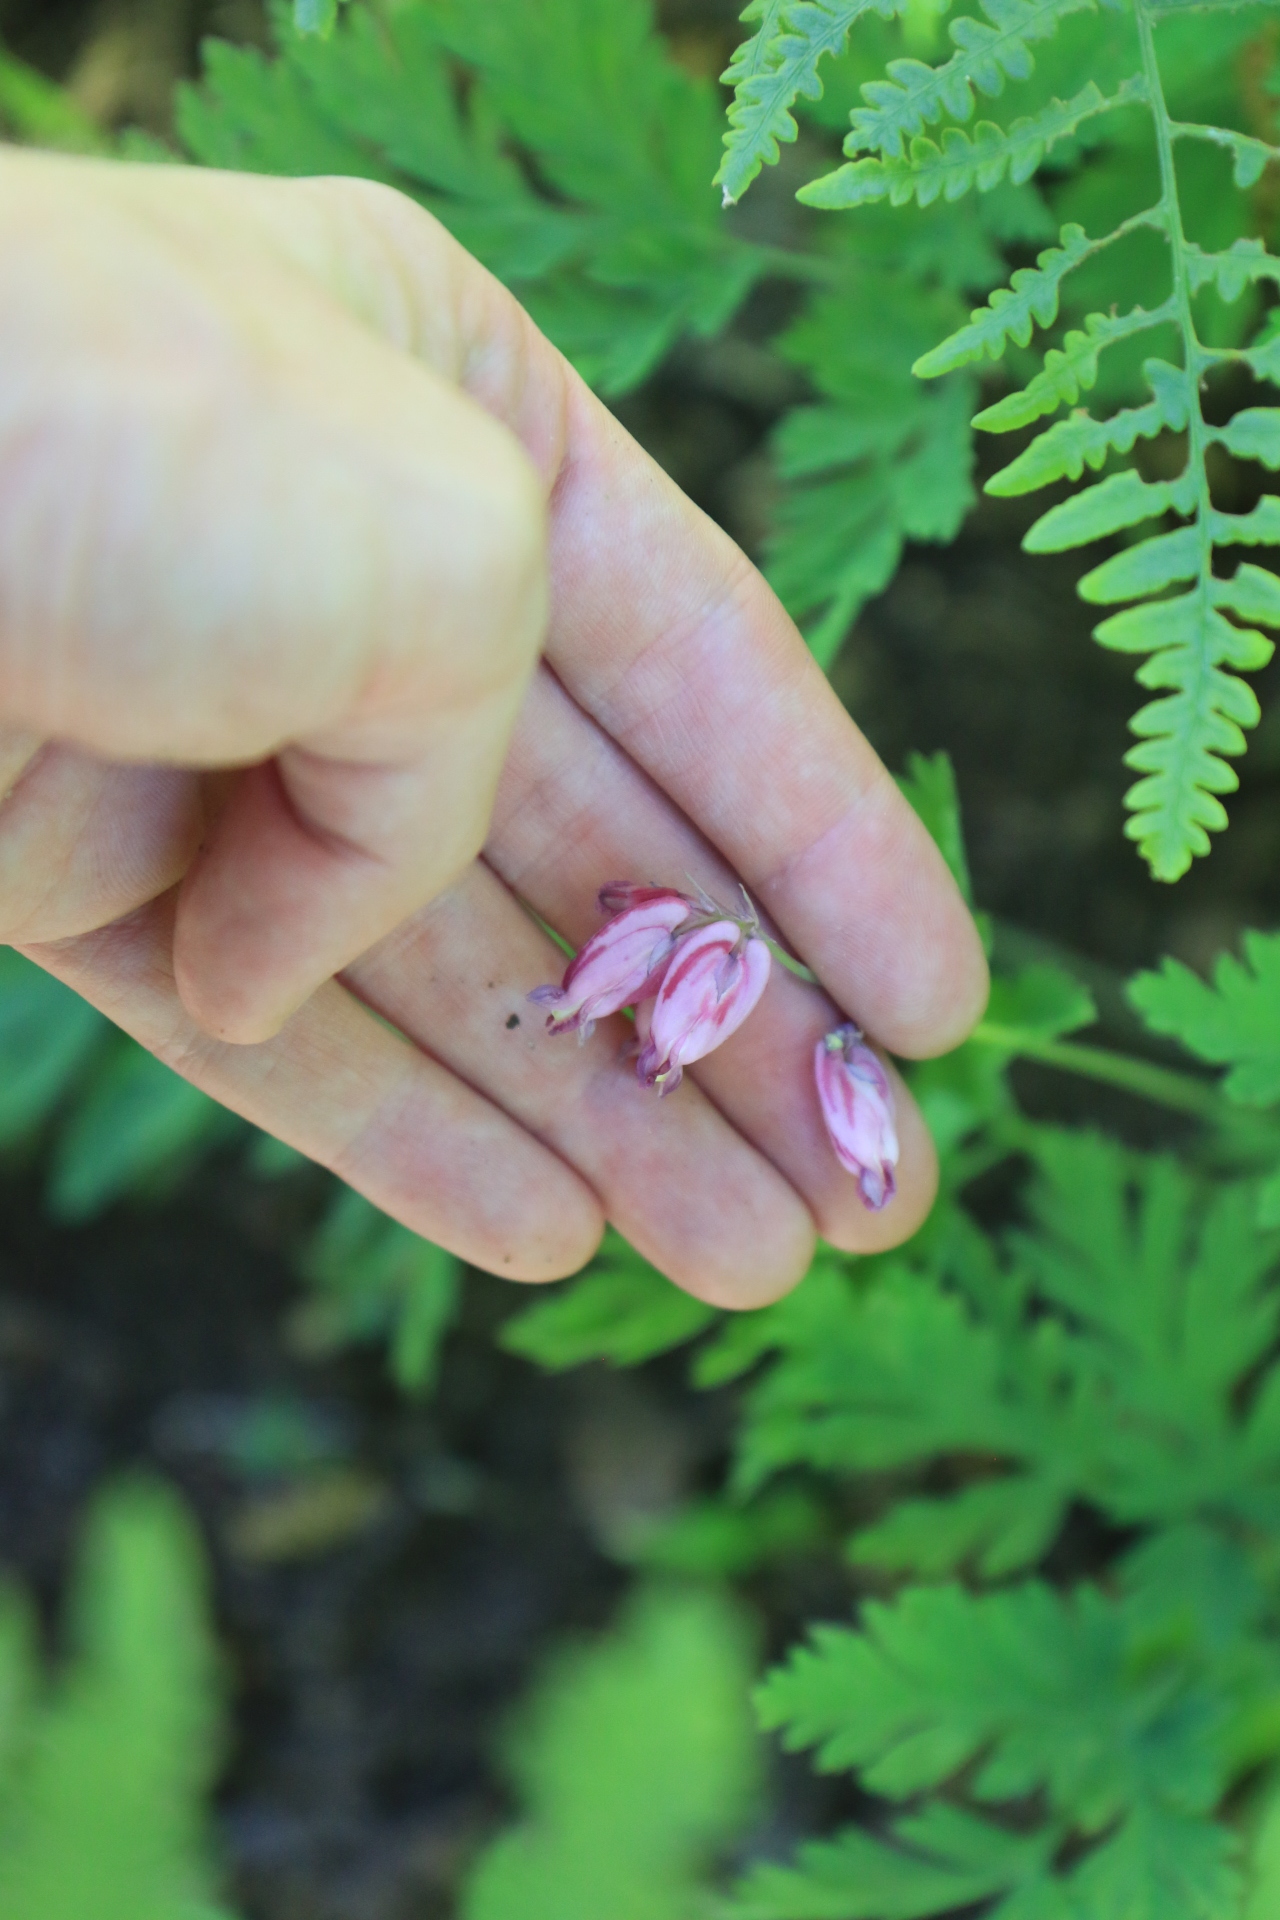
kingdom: Plantae
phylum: Tracheophyta
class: Magnoliopsida
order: Ranunculales
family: Papaveraceae
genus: Dicentra
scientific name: Dicentra formosa
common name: Bleeding-heart
